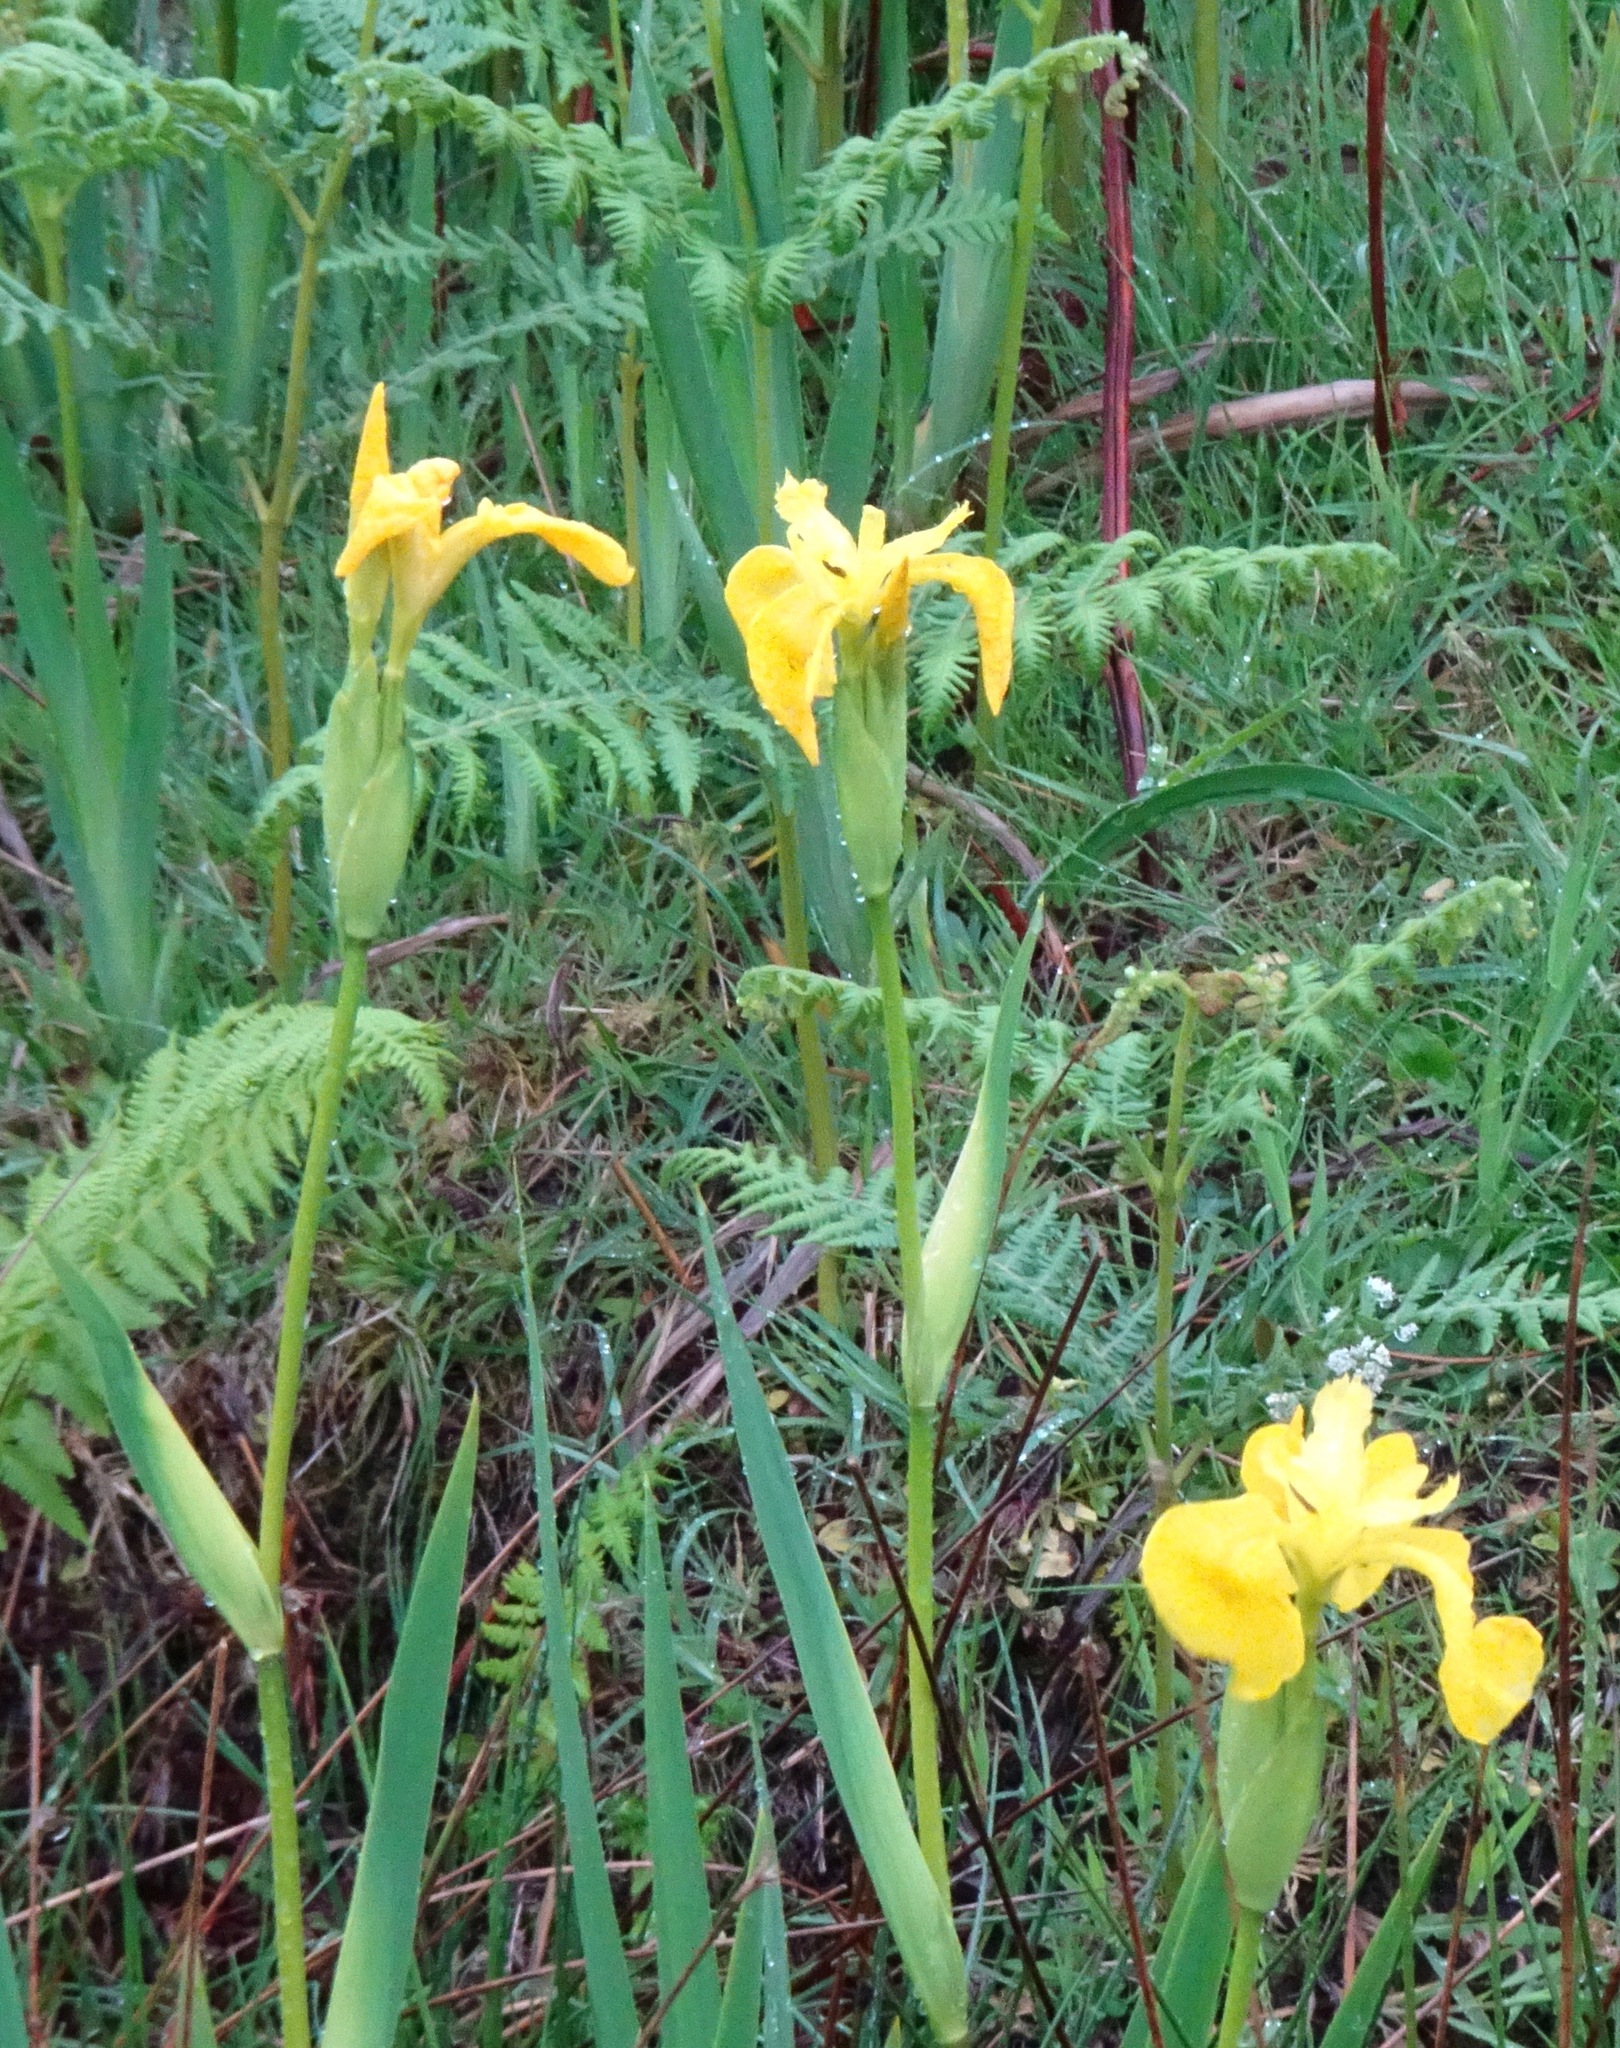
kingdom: Plantae
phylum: Tracheophyta
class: Liliopsida
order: Asparagales
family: Iridaceae
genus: Iris
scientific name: Iris pseudacorus
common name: Yellow flag
